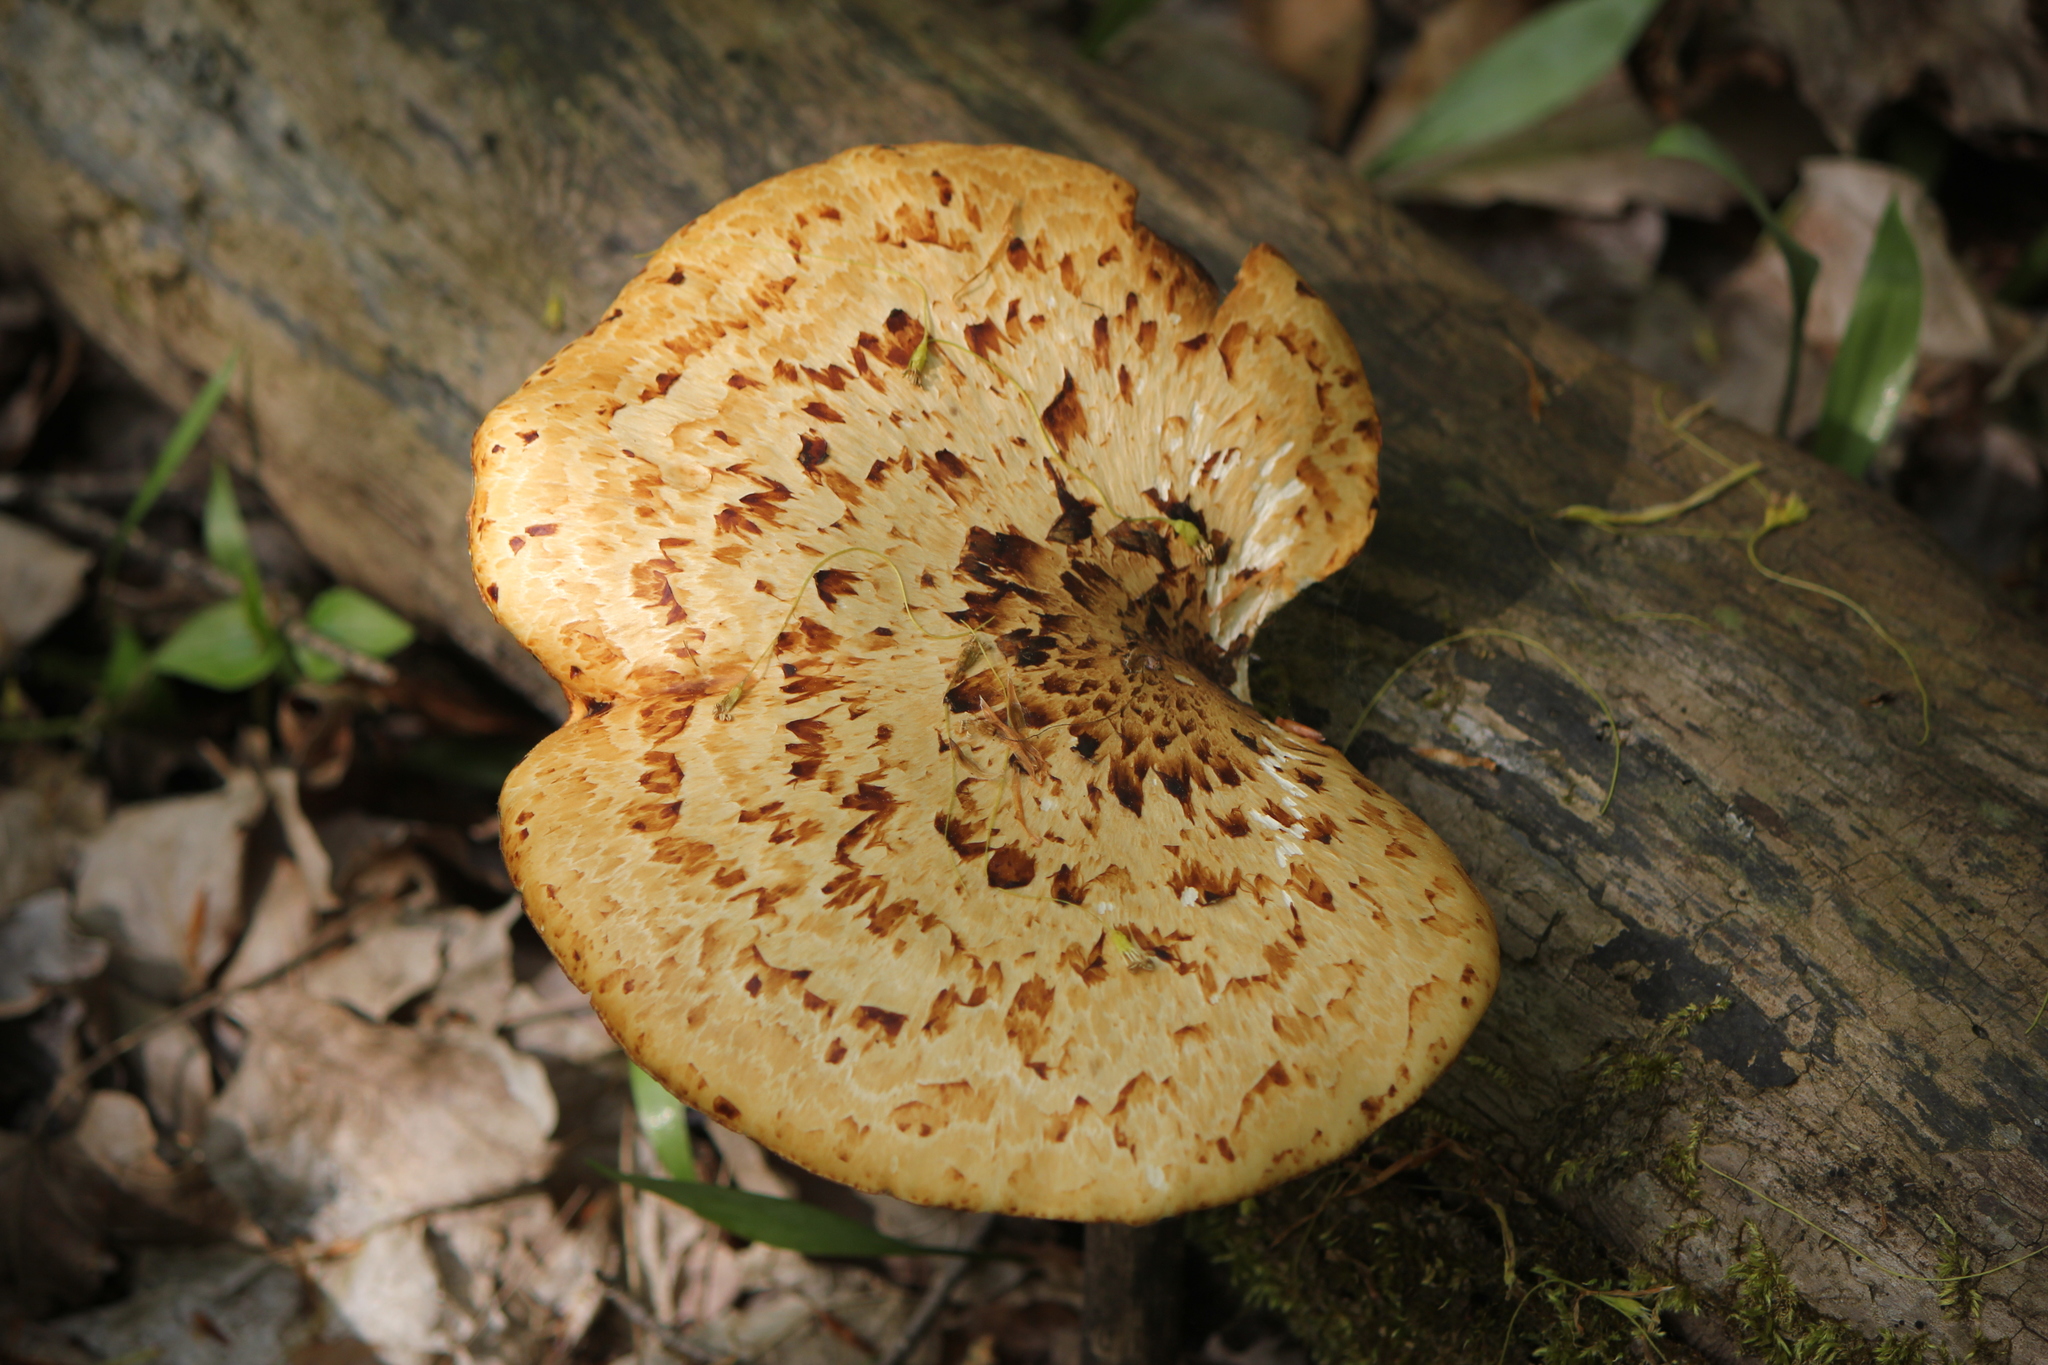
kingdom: Fungi
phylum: Basidiomycota
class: Agaricomycetes
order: Polyporales
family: Polyporaceae
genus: Cerioporus
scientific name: Cerioporus squamosus
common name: Dryad's saddle
